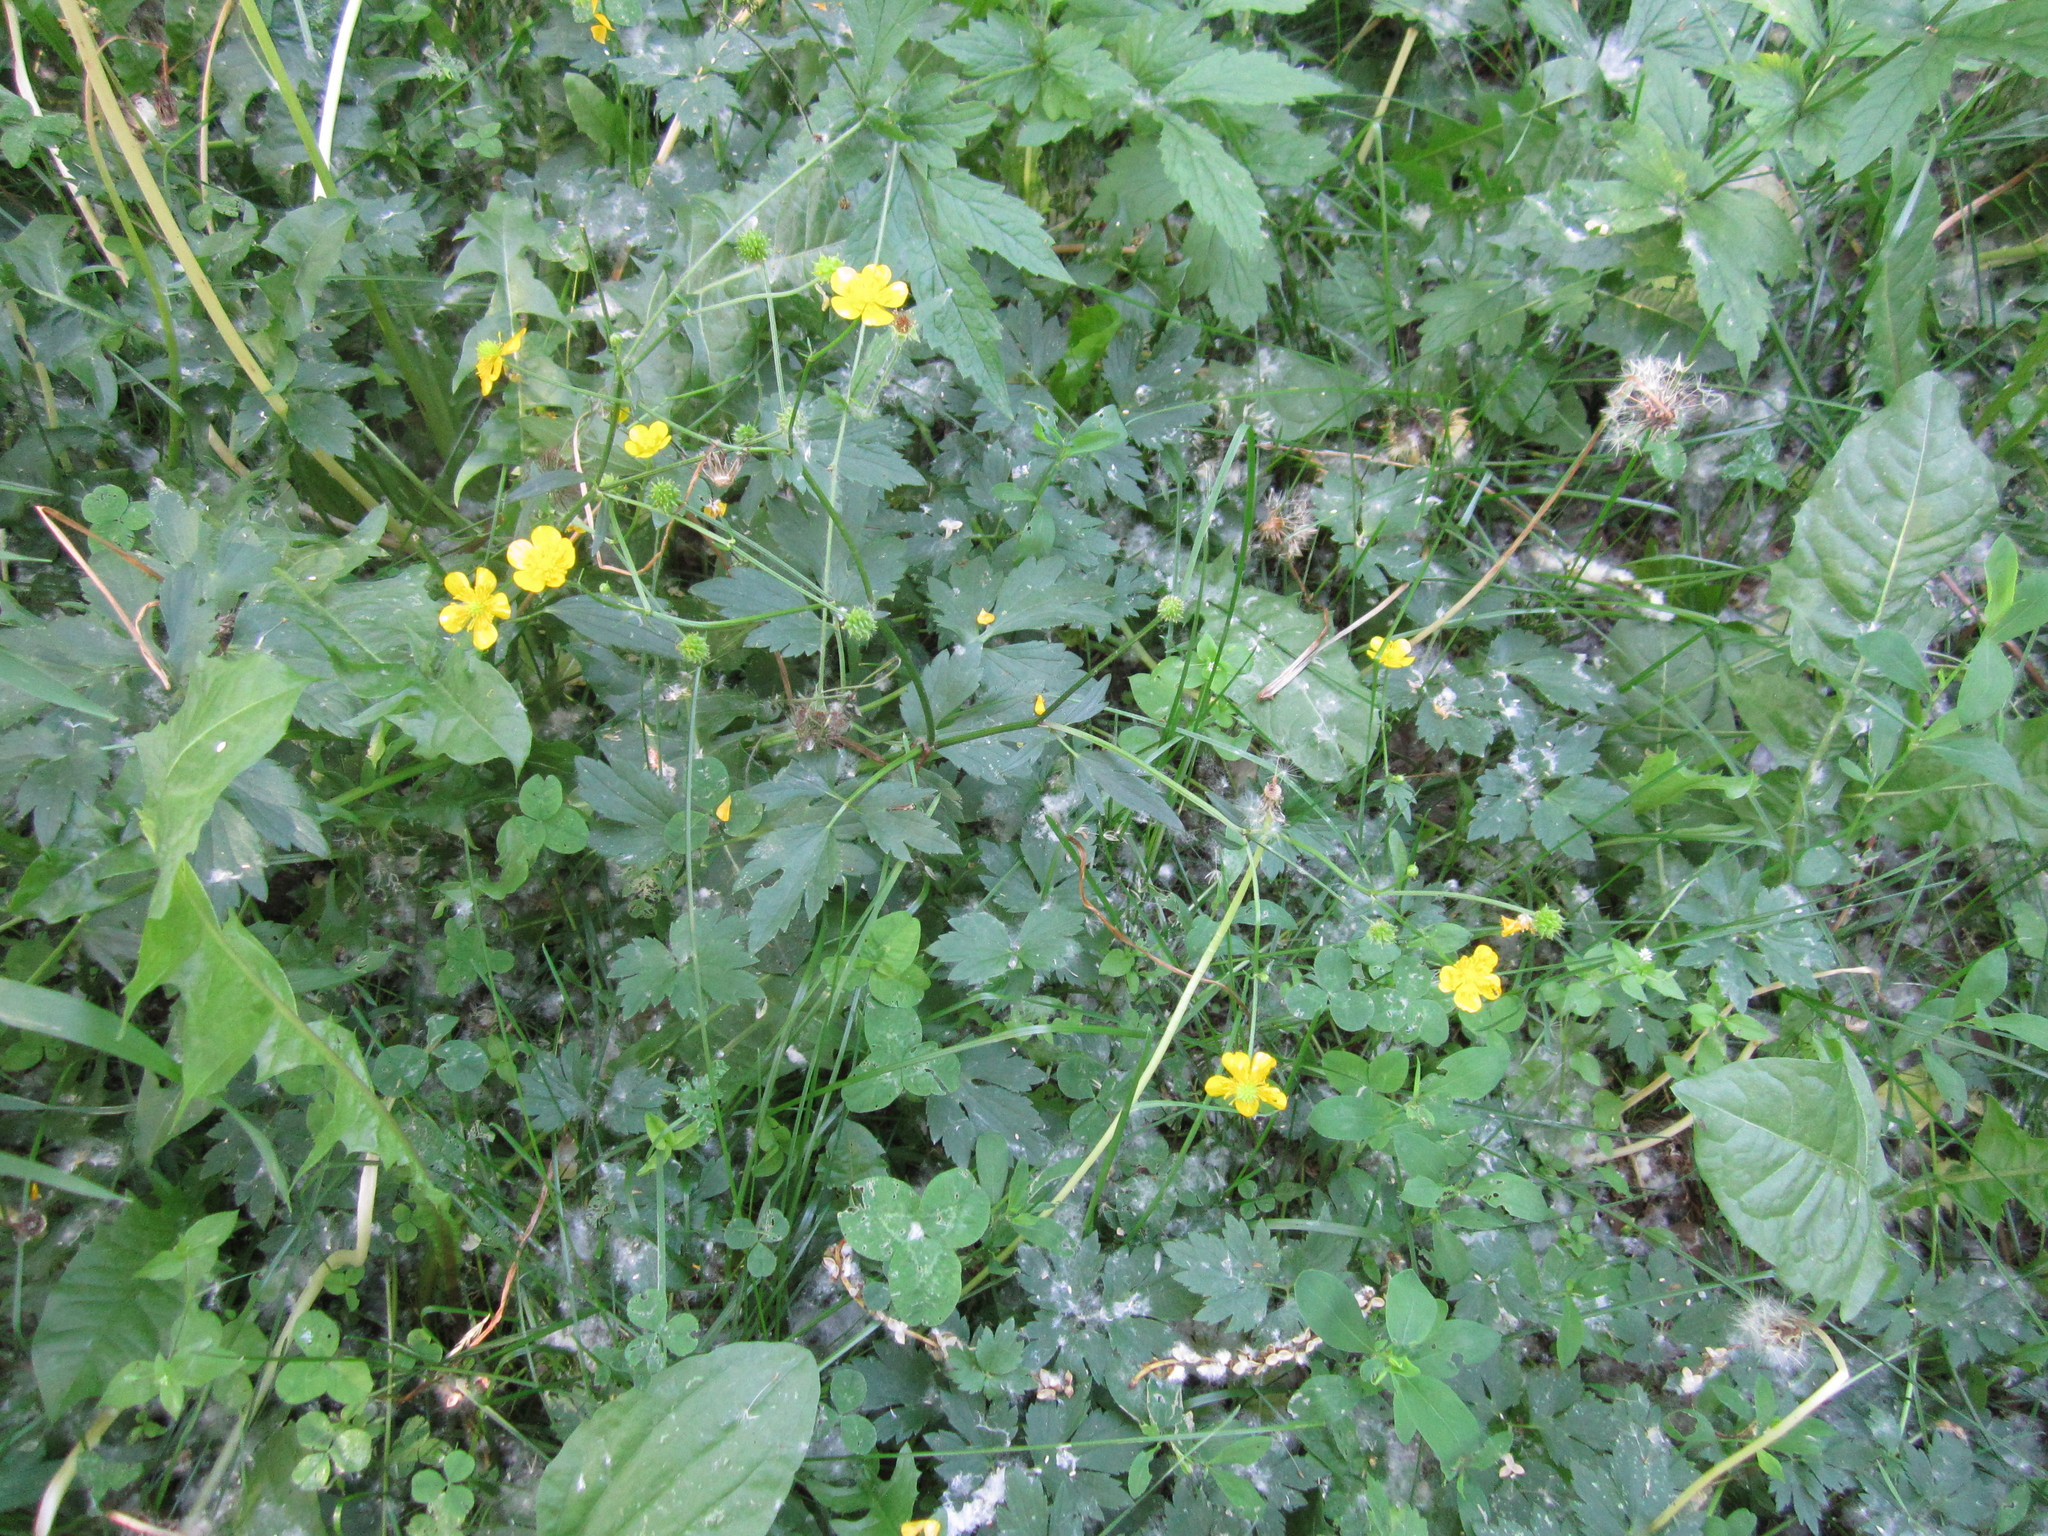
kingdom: Plantae
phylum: Tracheophyta
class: Magnoliopsida
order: Ranunculales
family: Ranunculaceae
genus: Ranunculus
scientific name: Ranunculus repens
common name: Creeping buttercup
